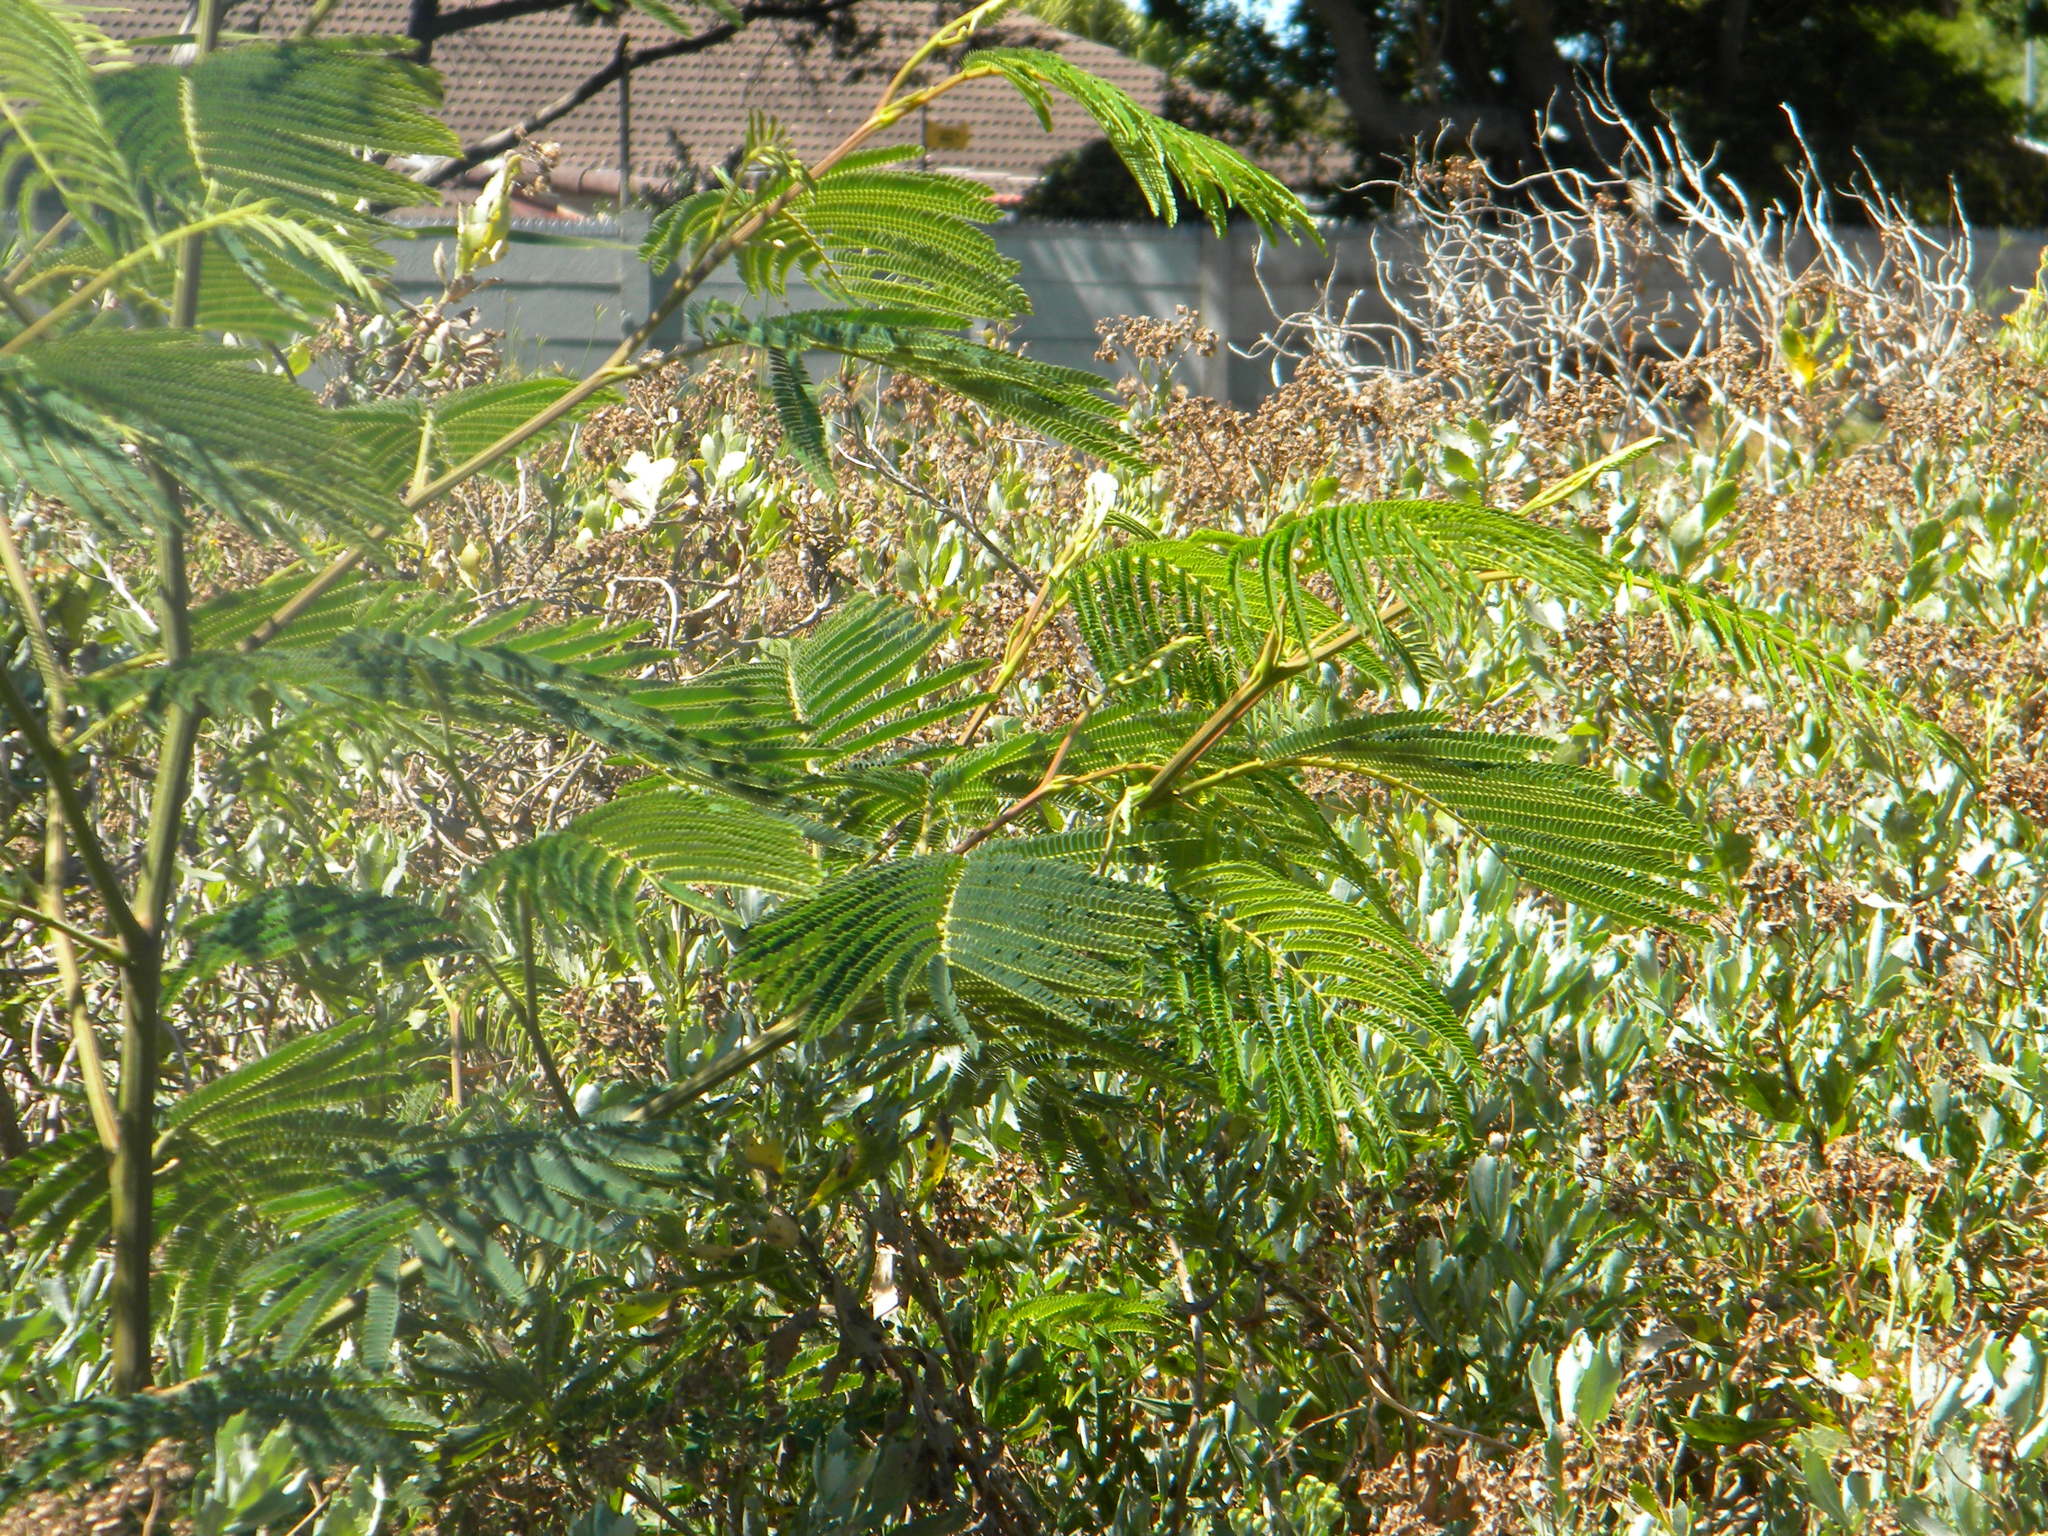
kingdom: Plantae
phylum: Tracheophyta
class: Magnoliopsida
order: Fabales
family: Fabaceae
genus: Paraserianthes
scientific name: Paraserianthes lophantha
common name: Plume albizia
